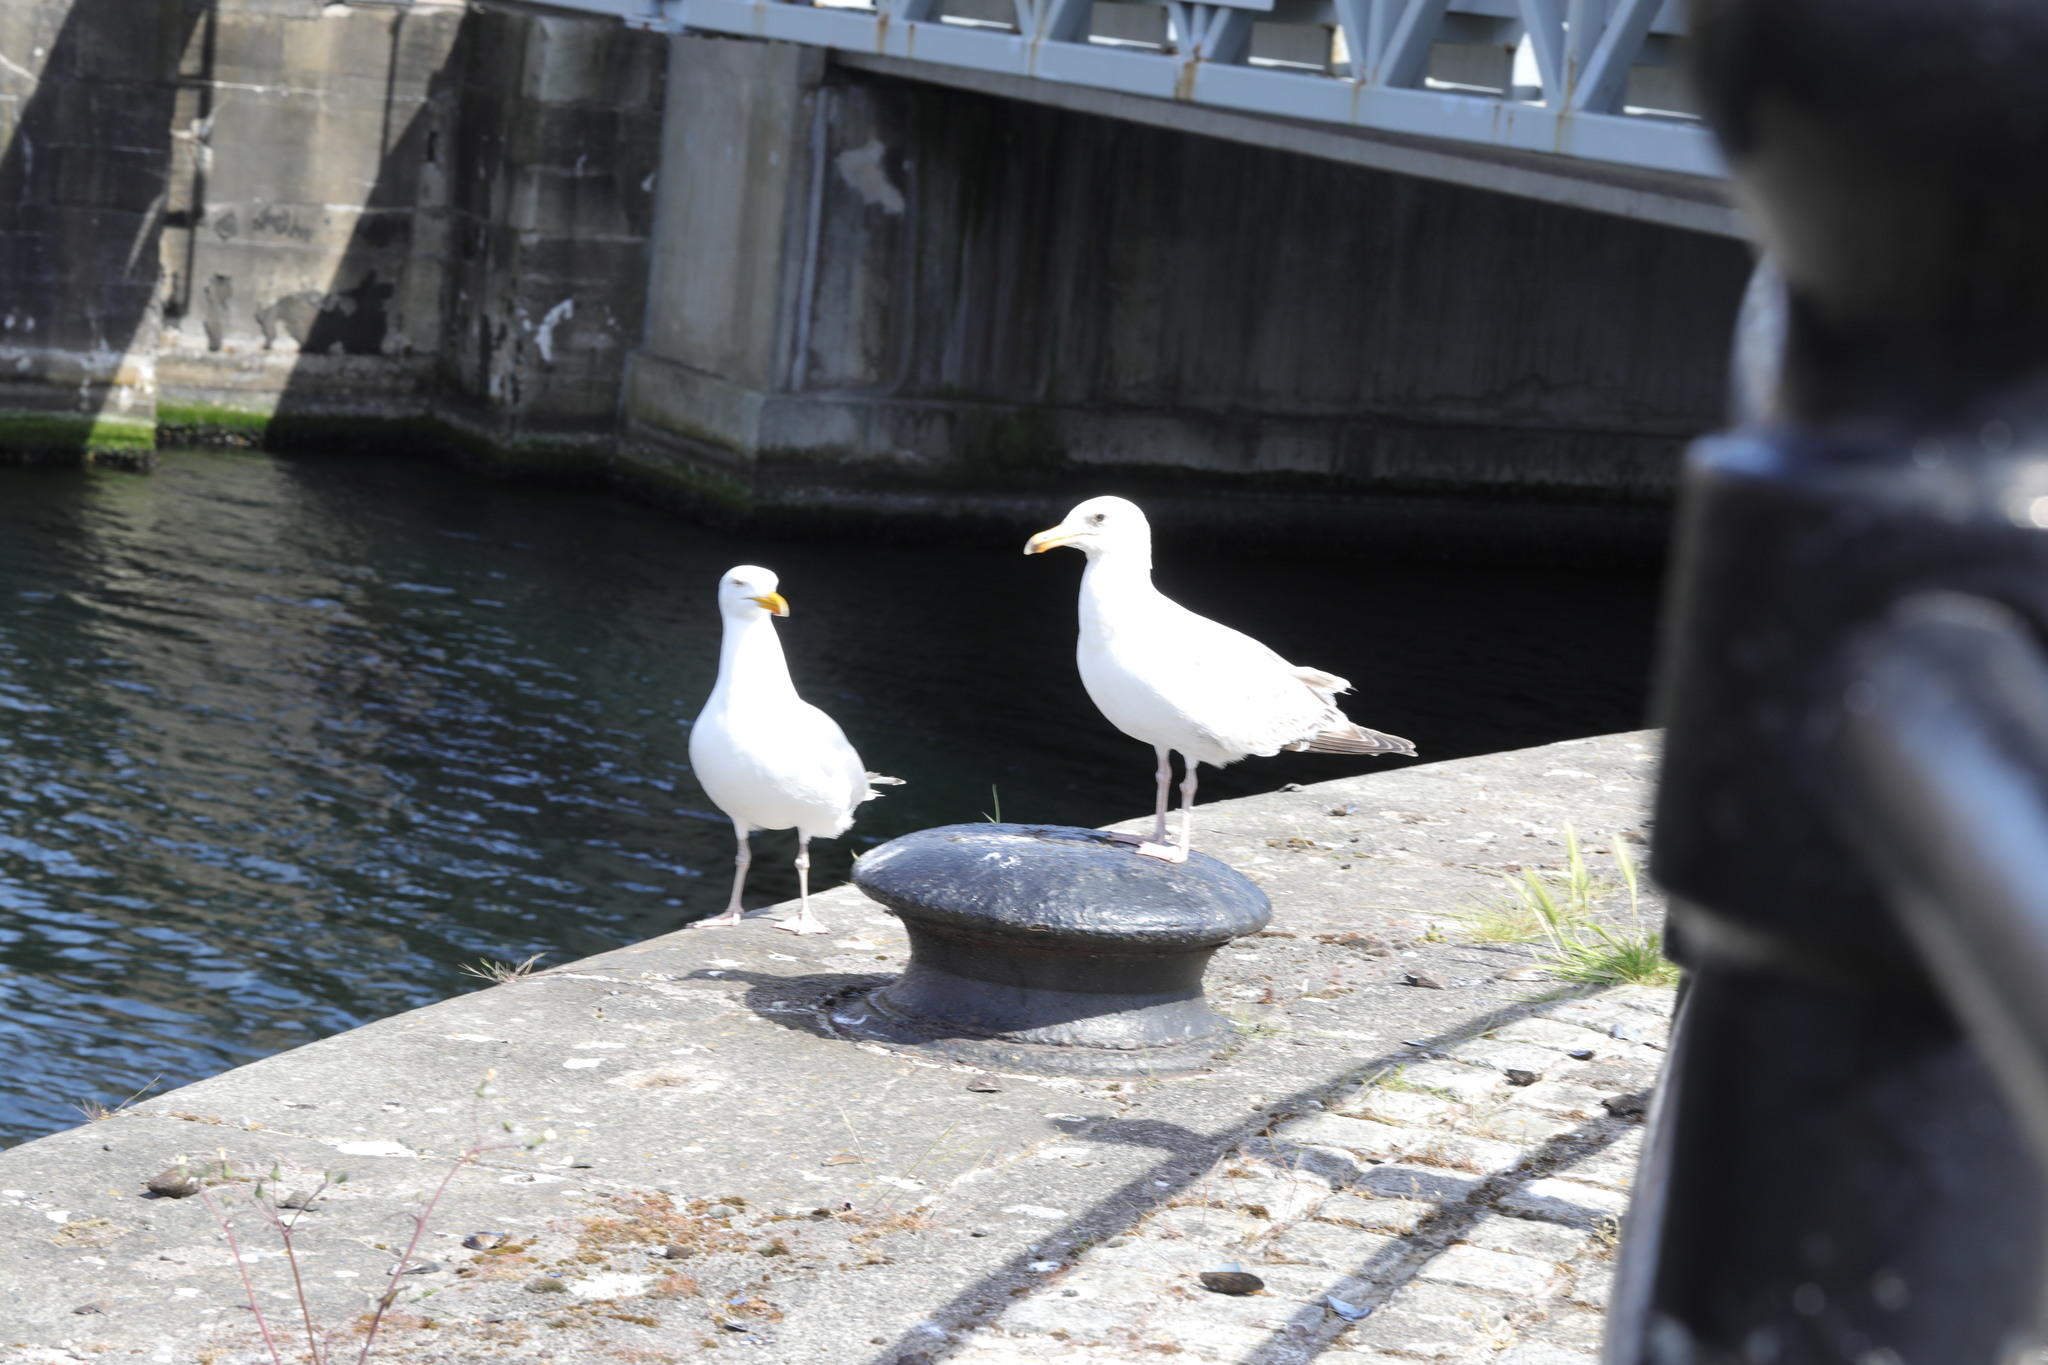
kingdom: Animalia
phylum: Chordata
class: Aves
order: Charadriiformes
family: Laridae
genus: Larus
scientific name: Larus argentatus
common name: Herring gull
